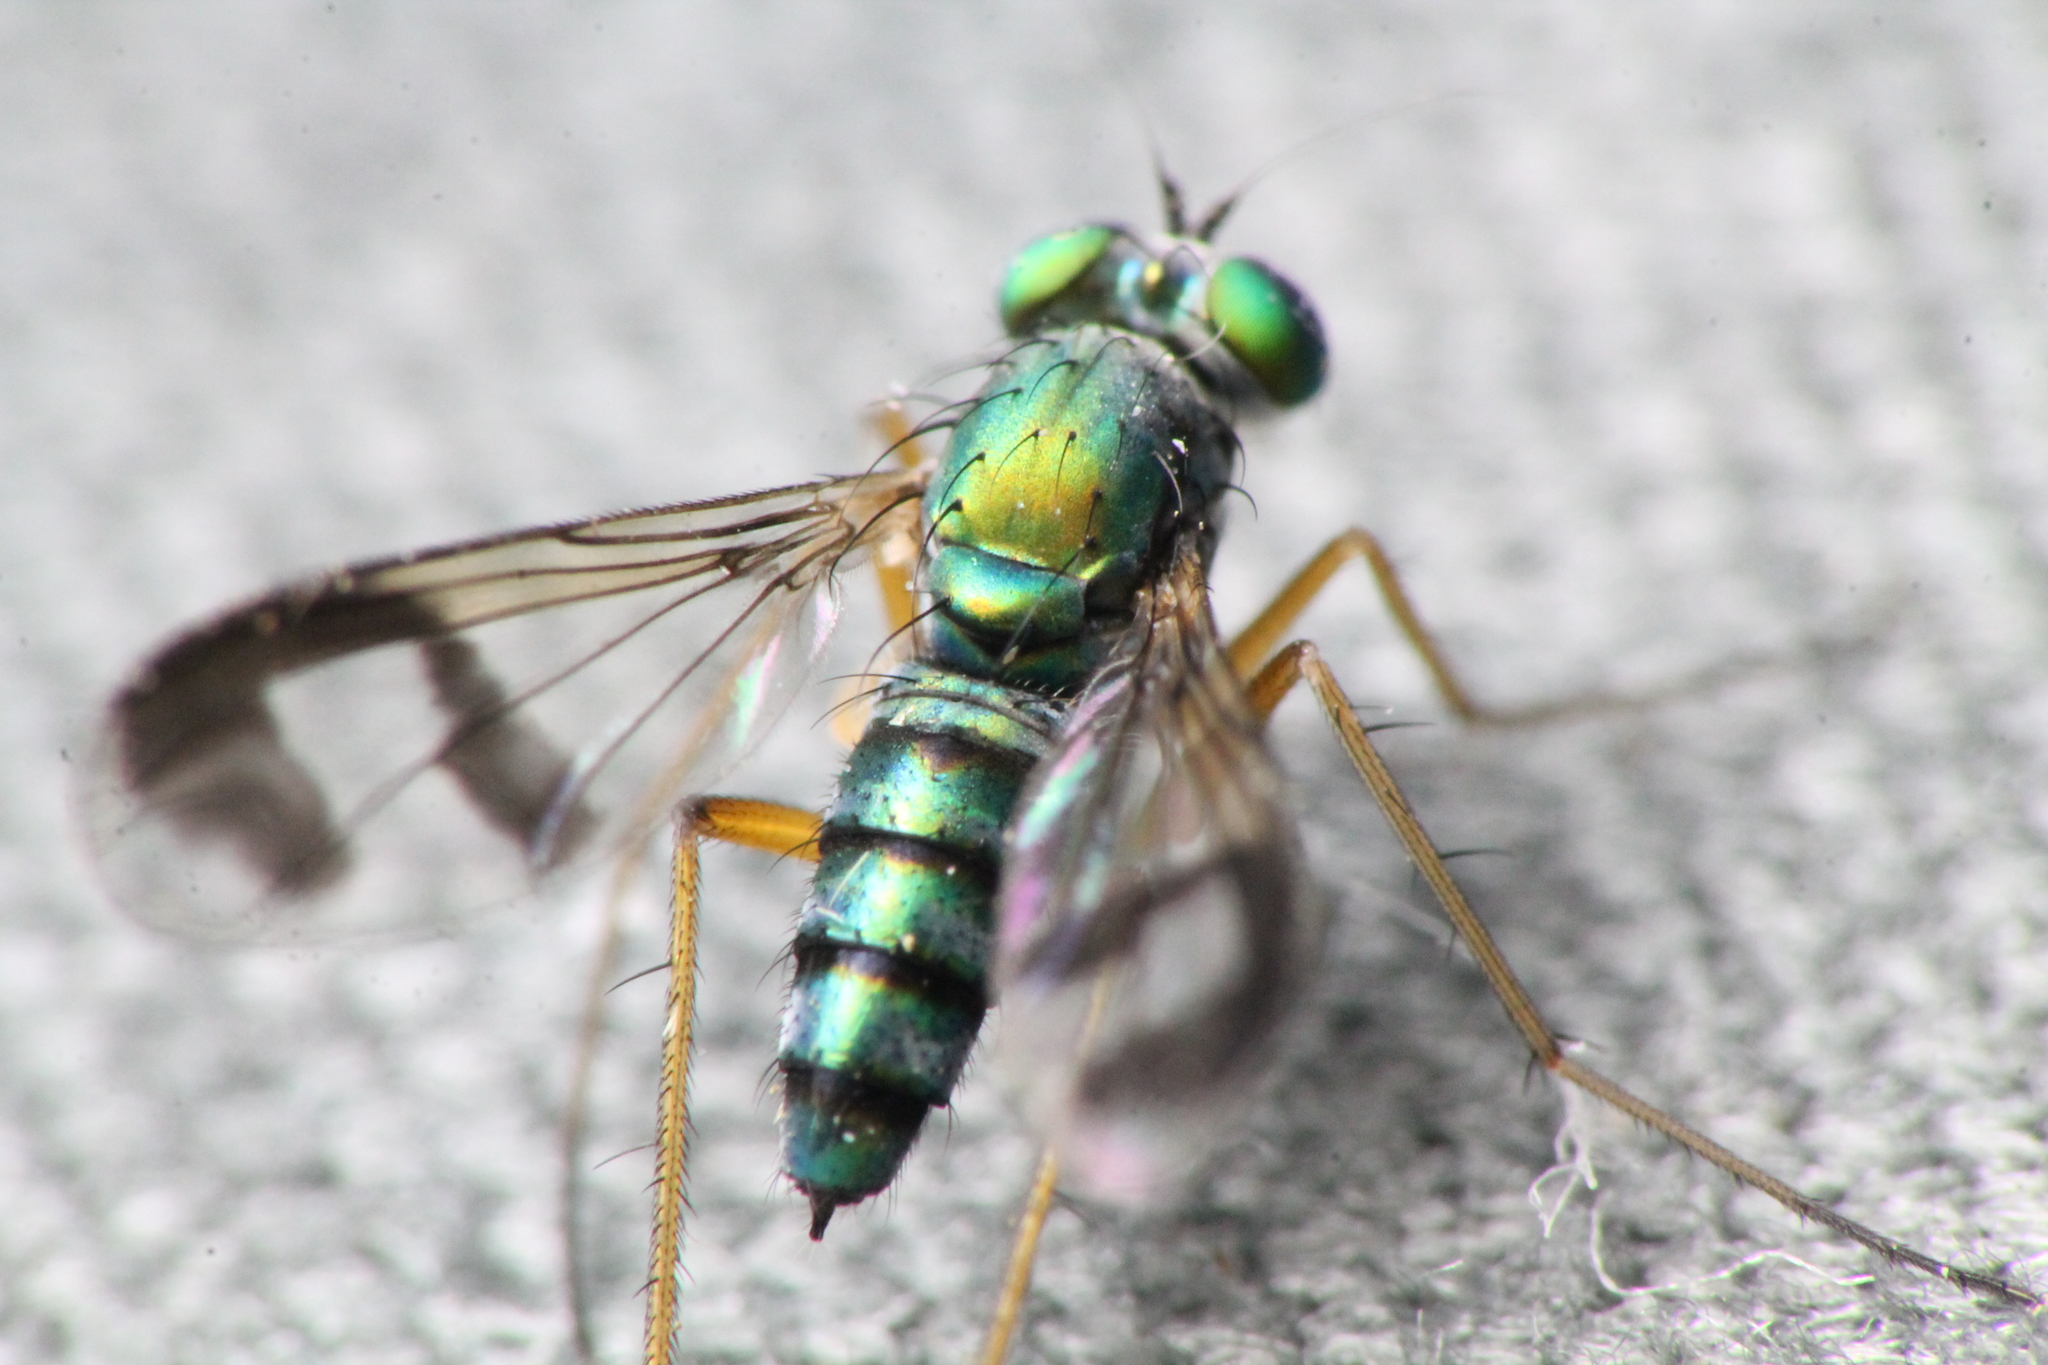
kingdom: Animalia
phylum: Arthropoda
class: Insecta
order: Diptera
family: Dolichopodidae
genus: Austrosciapus
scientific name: Austrosciapus proximus
